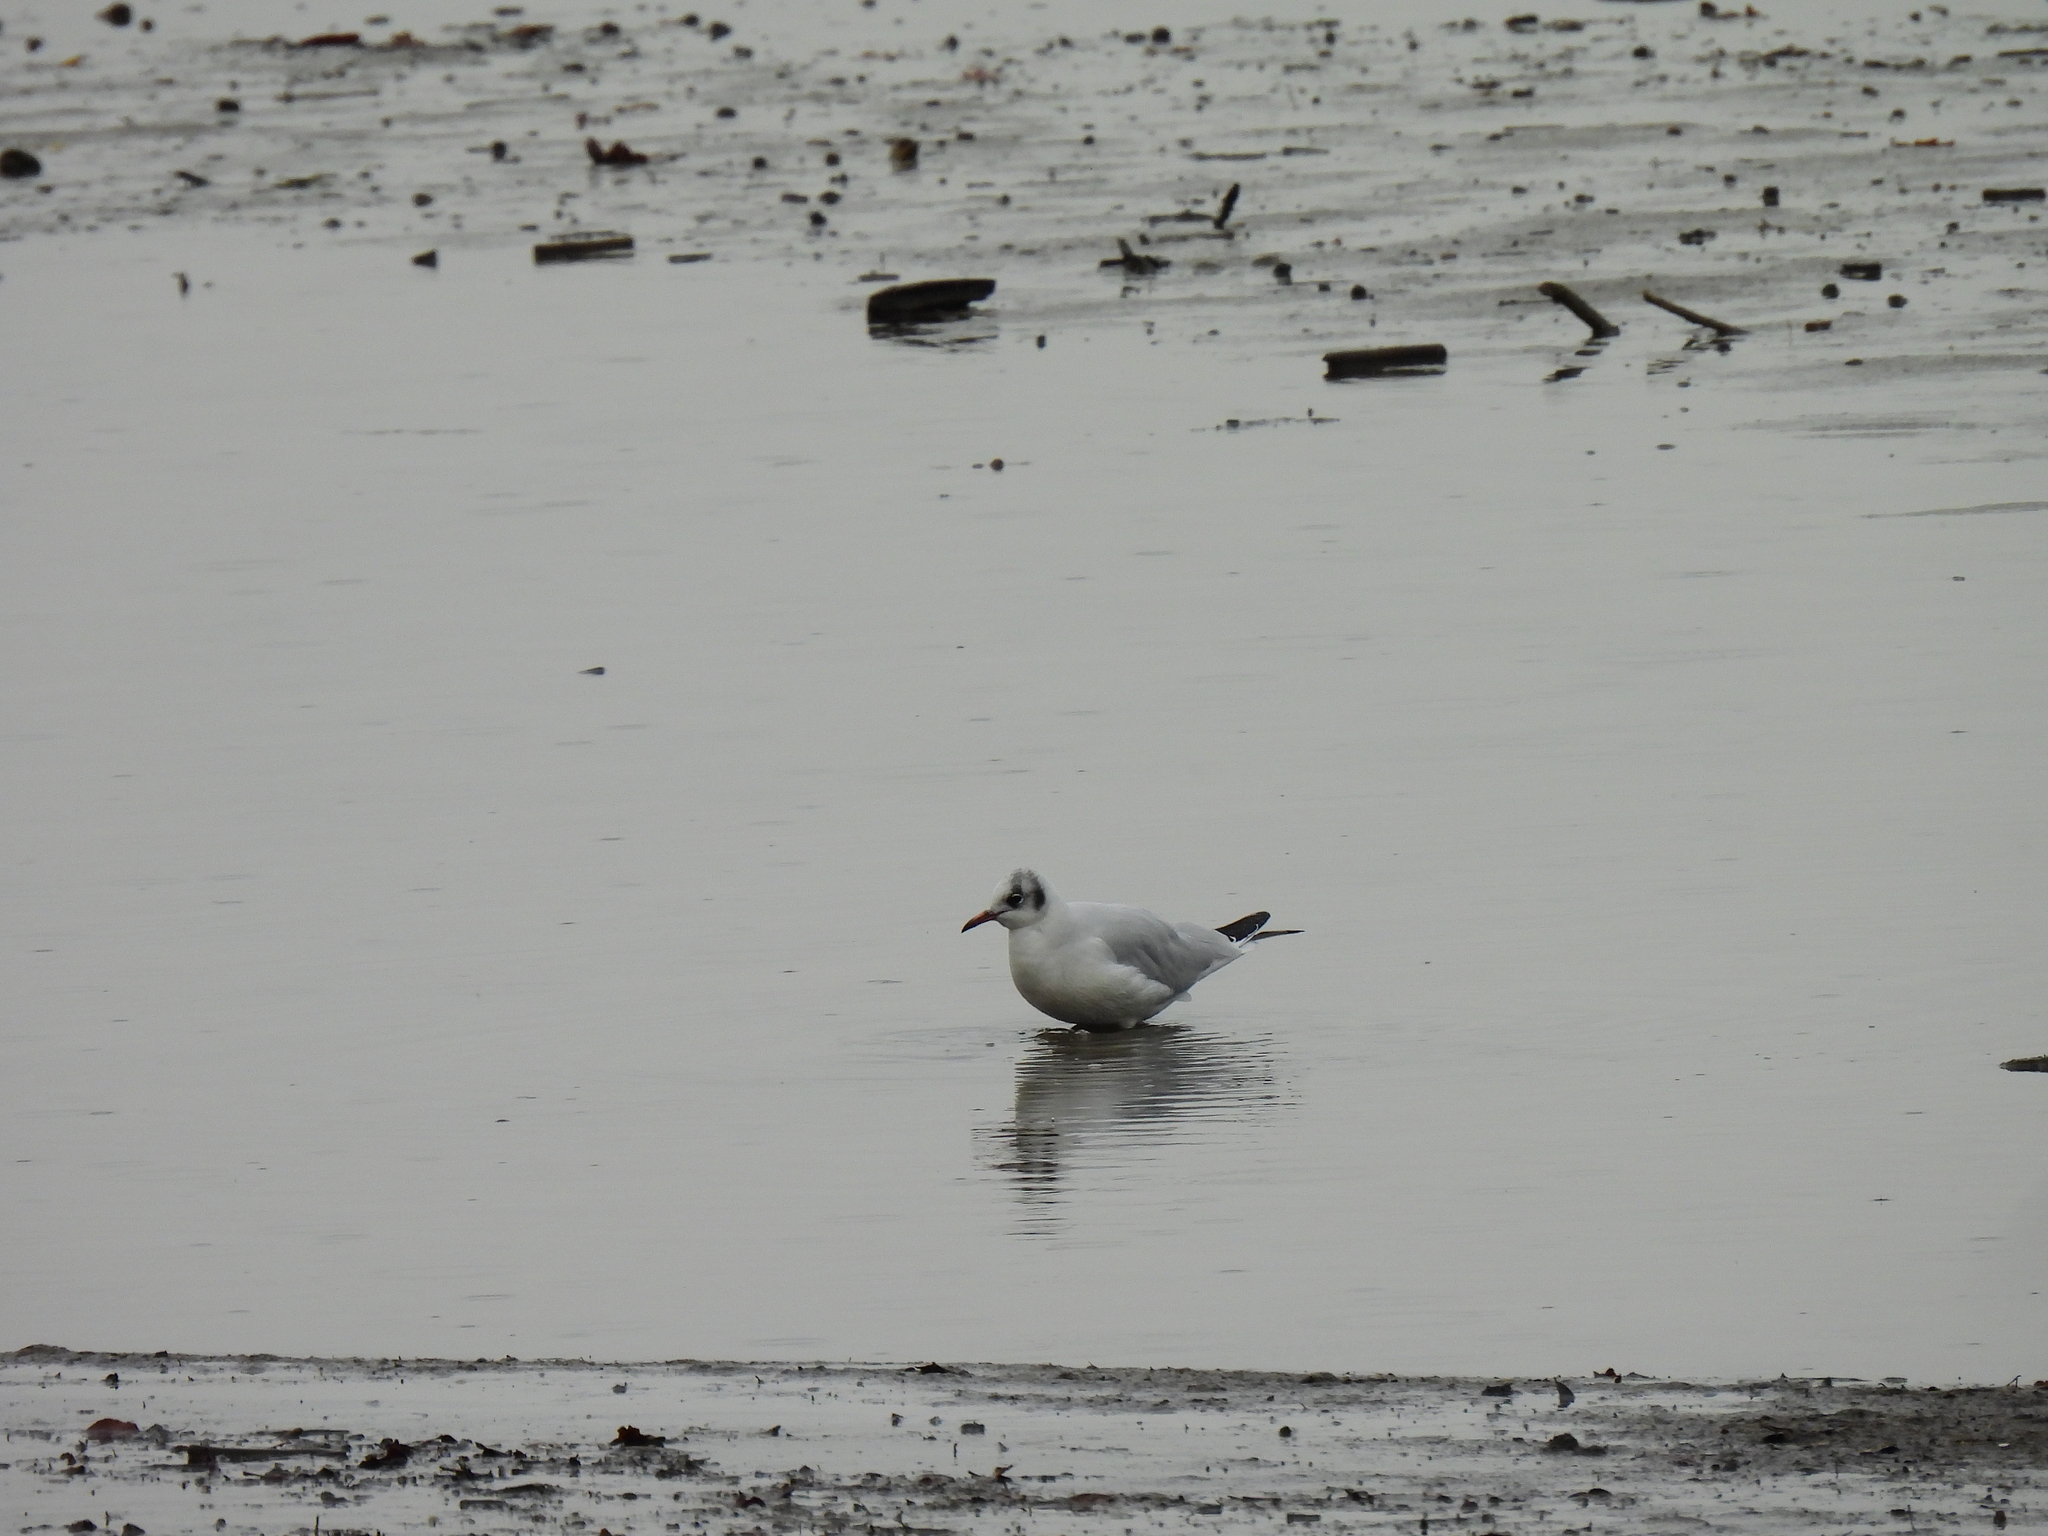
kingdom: Animalia
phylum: Chordata
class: Aves
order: Charadriiformes
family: Laridae
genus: Chroicocephalus
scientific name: Chroicocephalus ridibundus
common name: Black-headed gull
